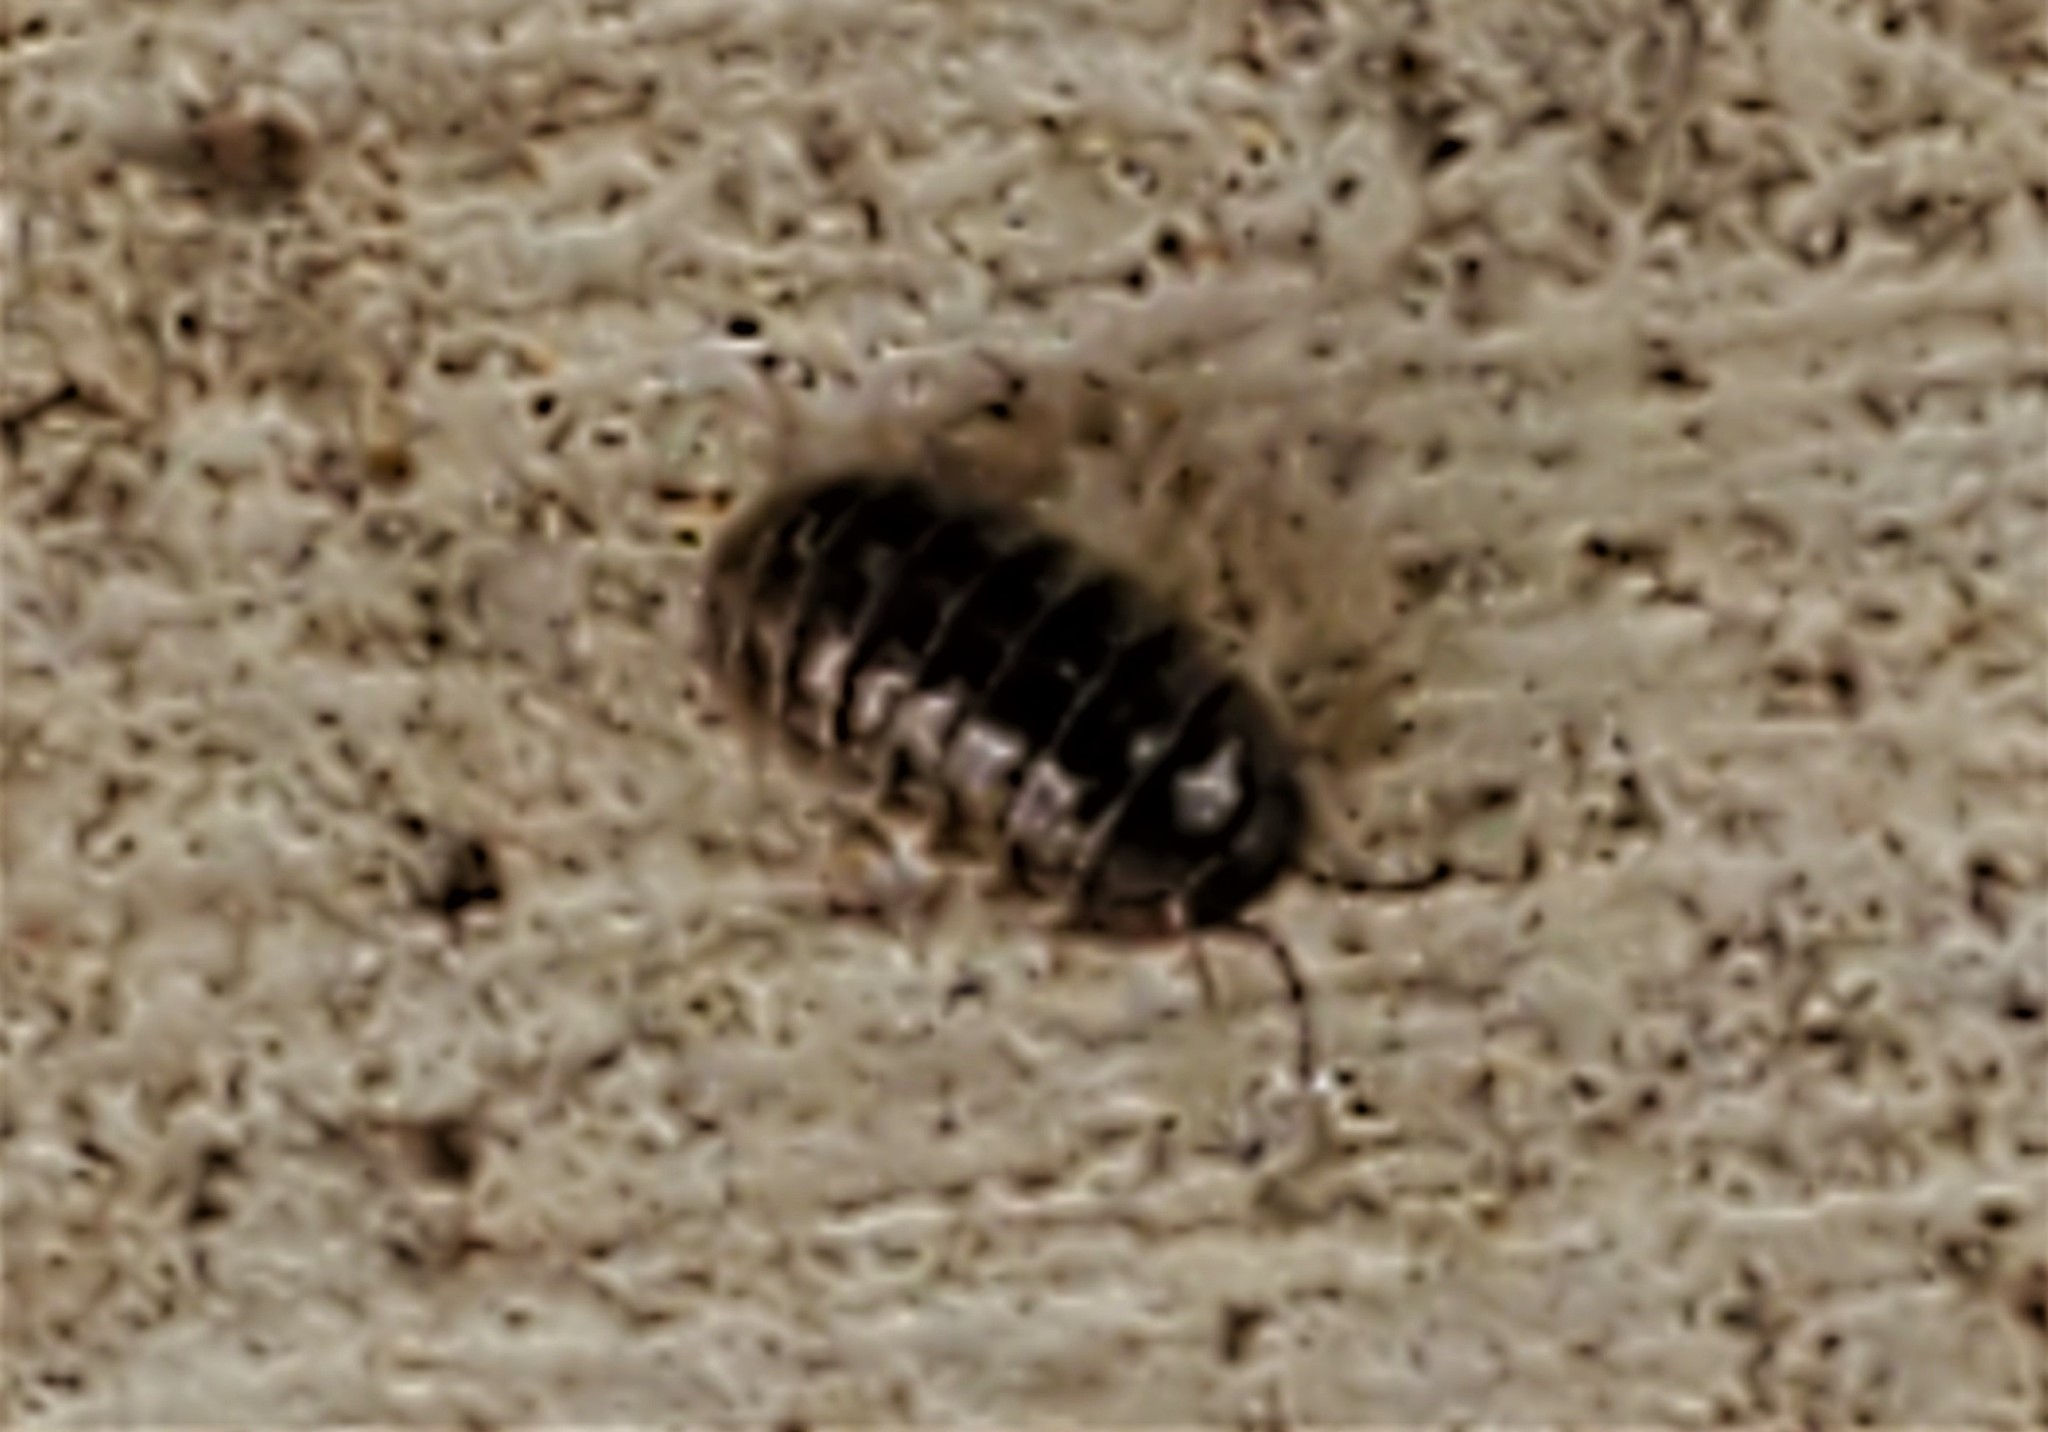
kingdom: Animalia
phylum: Arthropoda
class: Malacostraca
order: Isopoda
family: Armadillidiidae
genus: Armadillidium
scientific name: Armadillidium vulgare
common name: Common pill woodlouse
